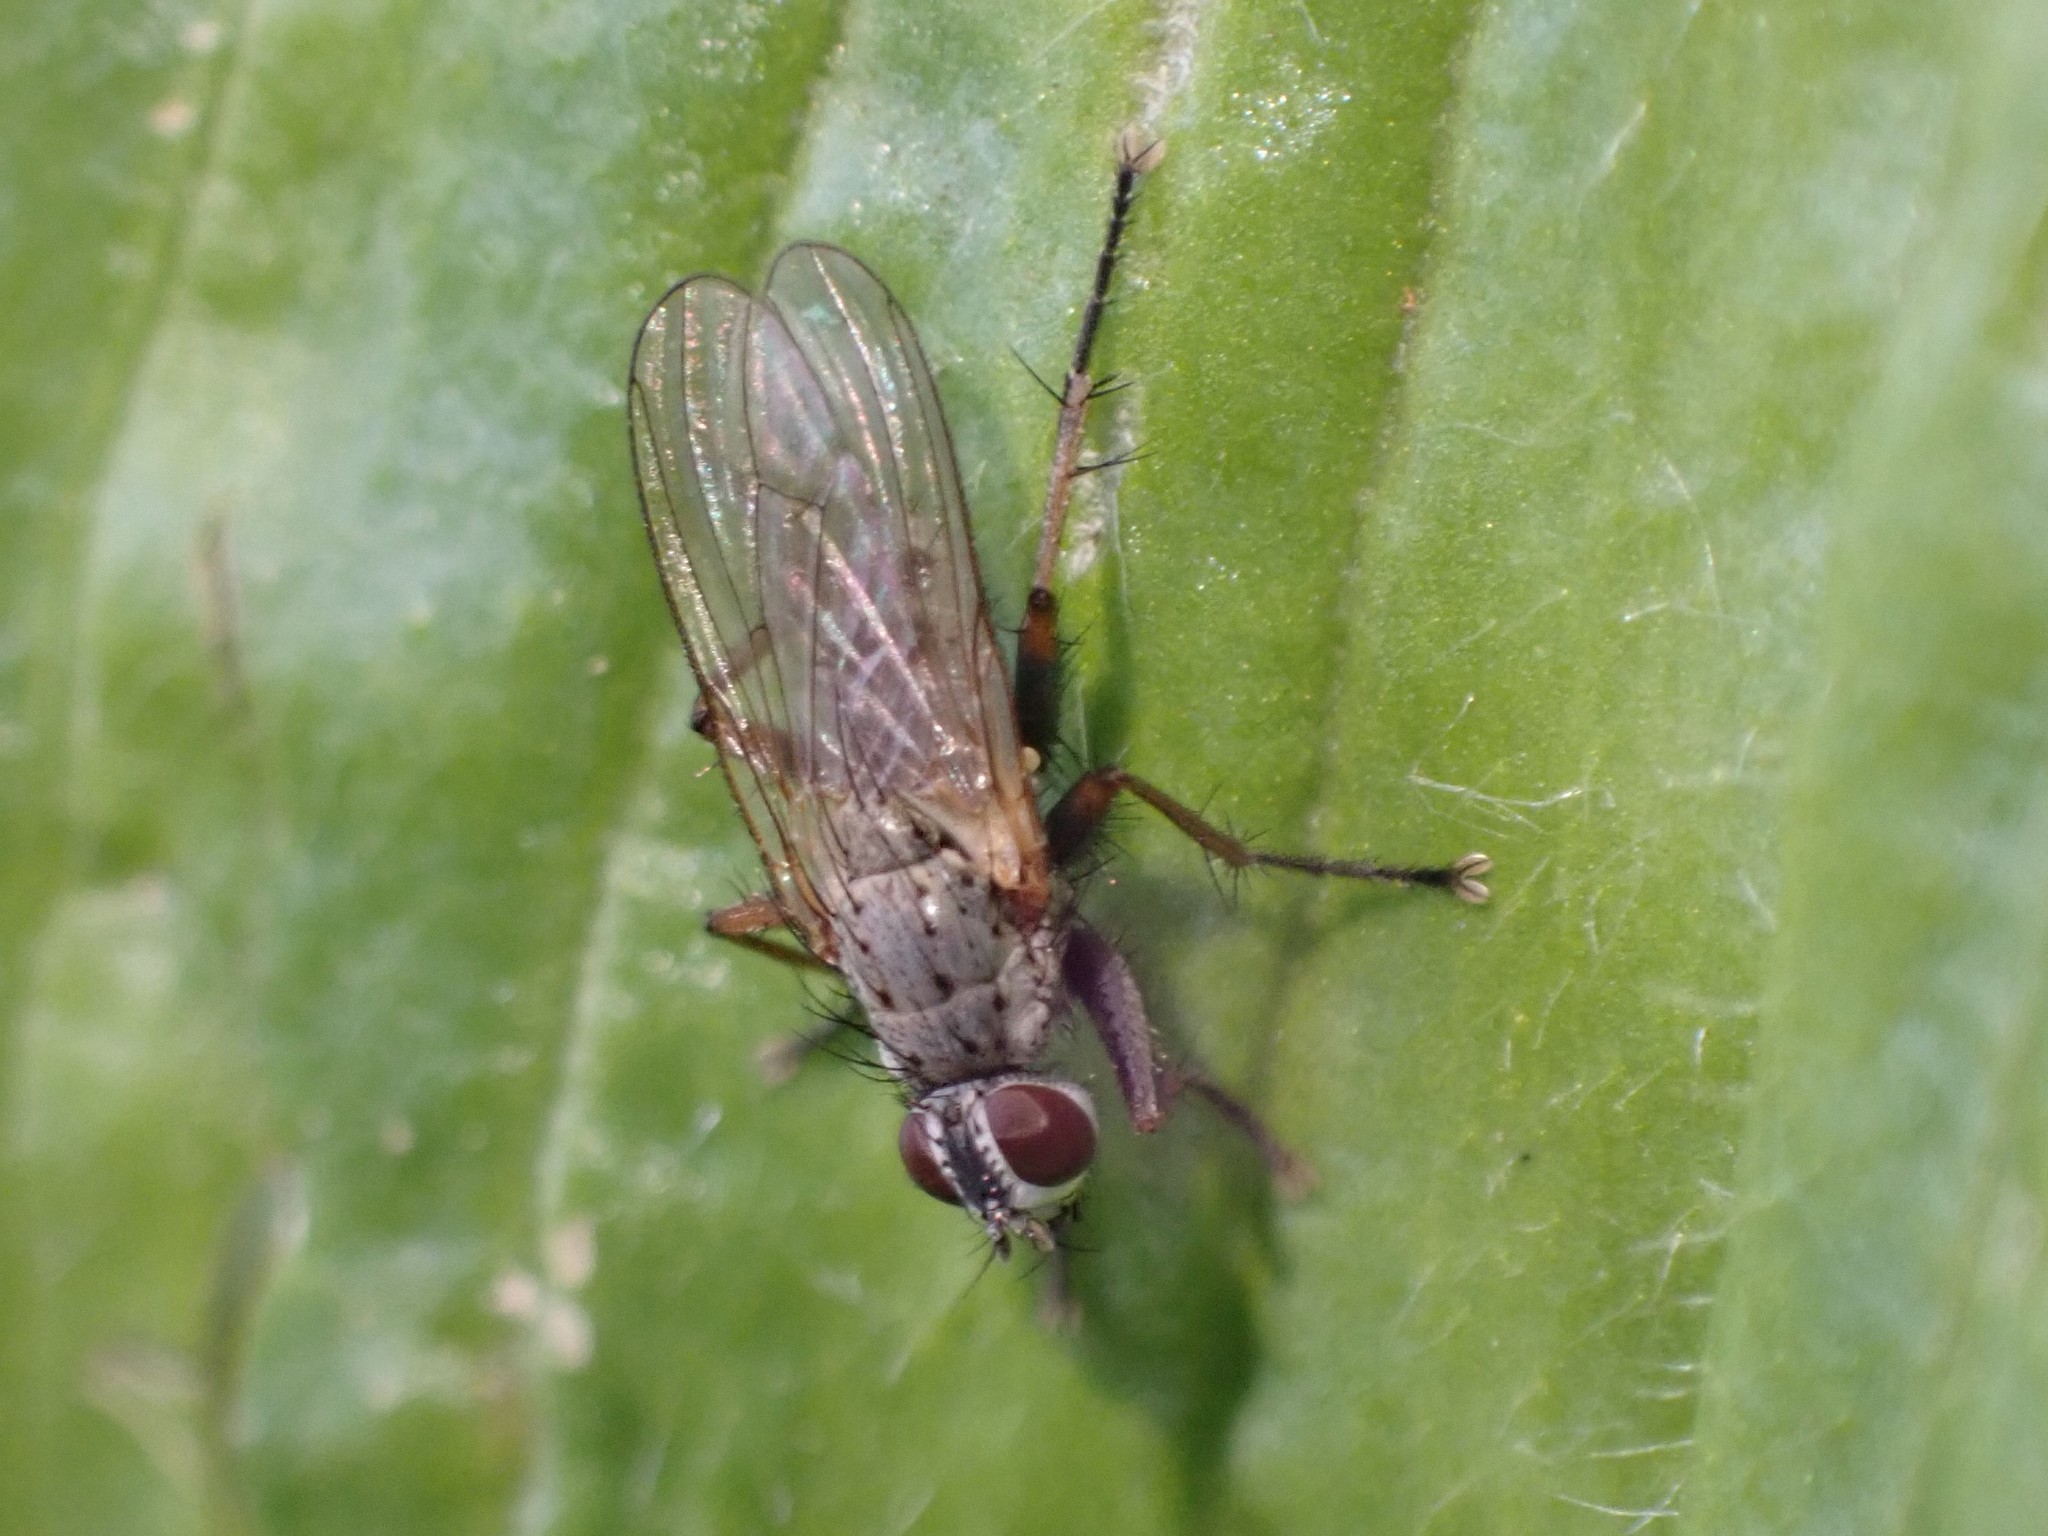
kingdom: Animalia
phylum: Arthropoda
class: Insecta
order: Diptera
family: Muscidae
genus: Coenosia
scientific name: Coenosia tigrina
